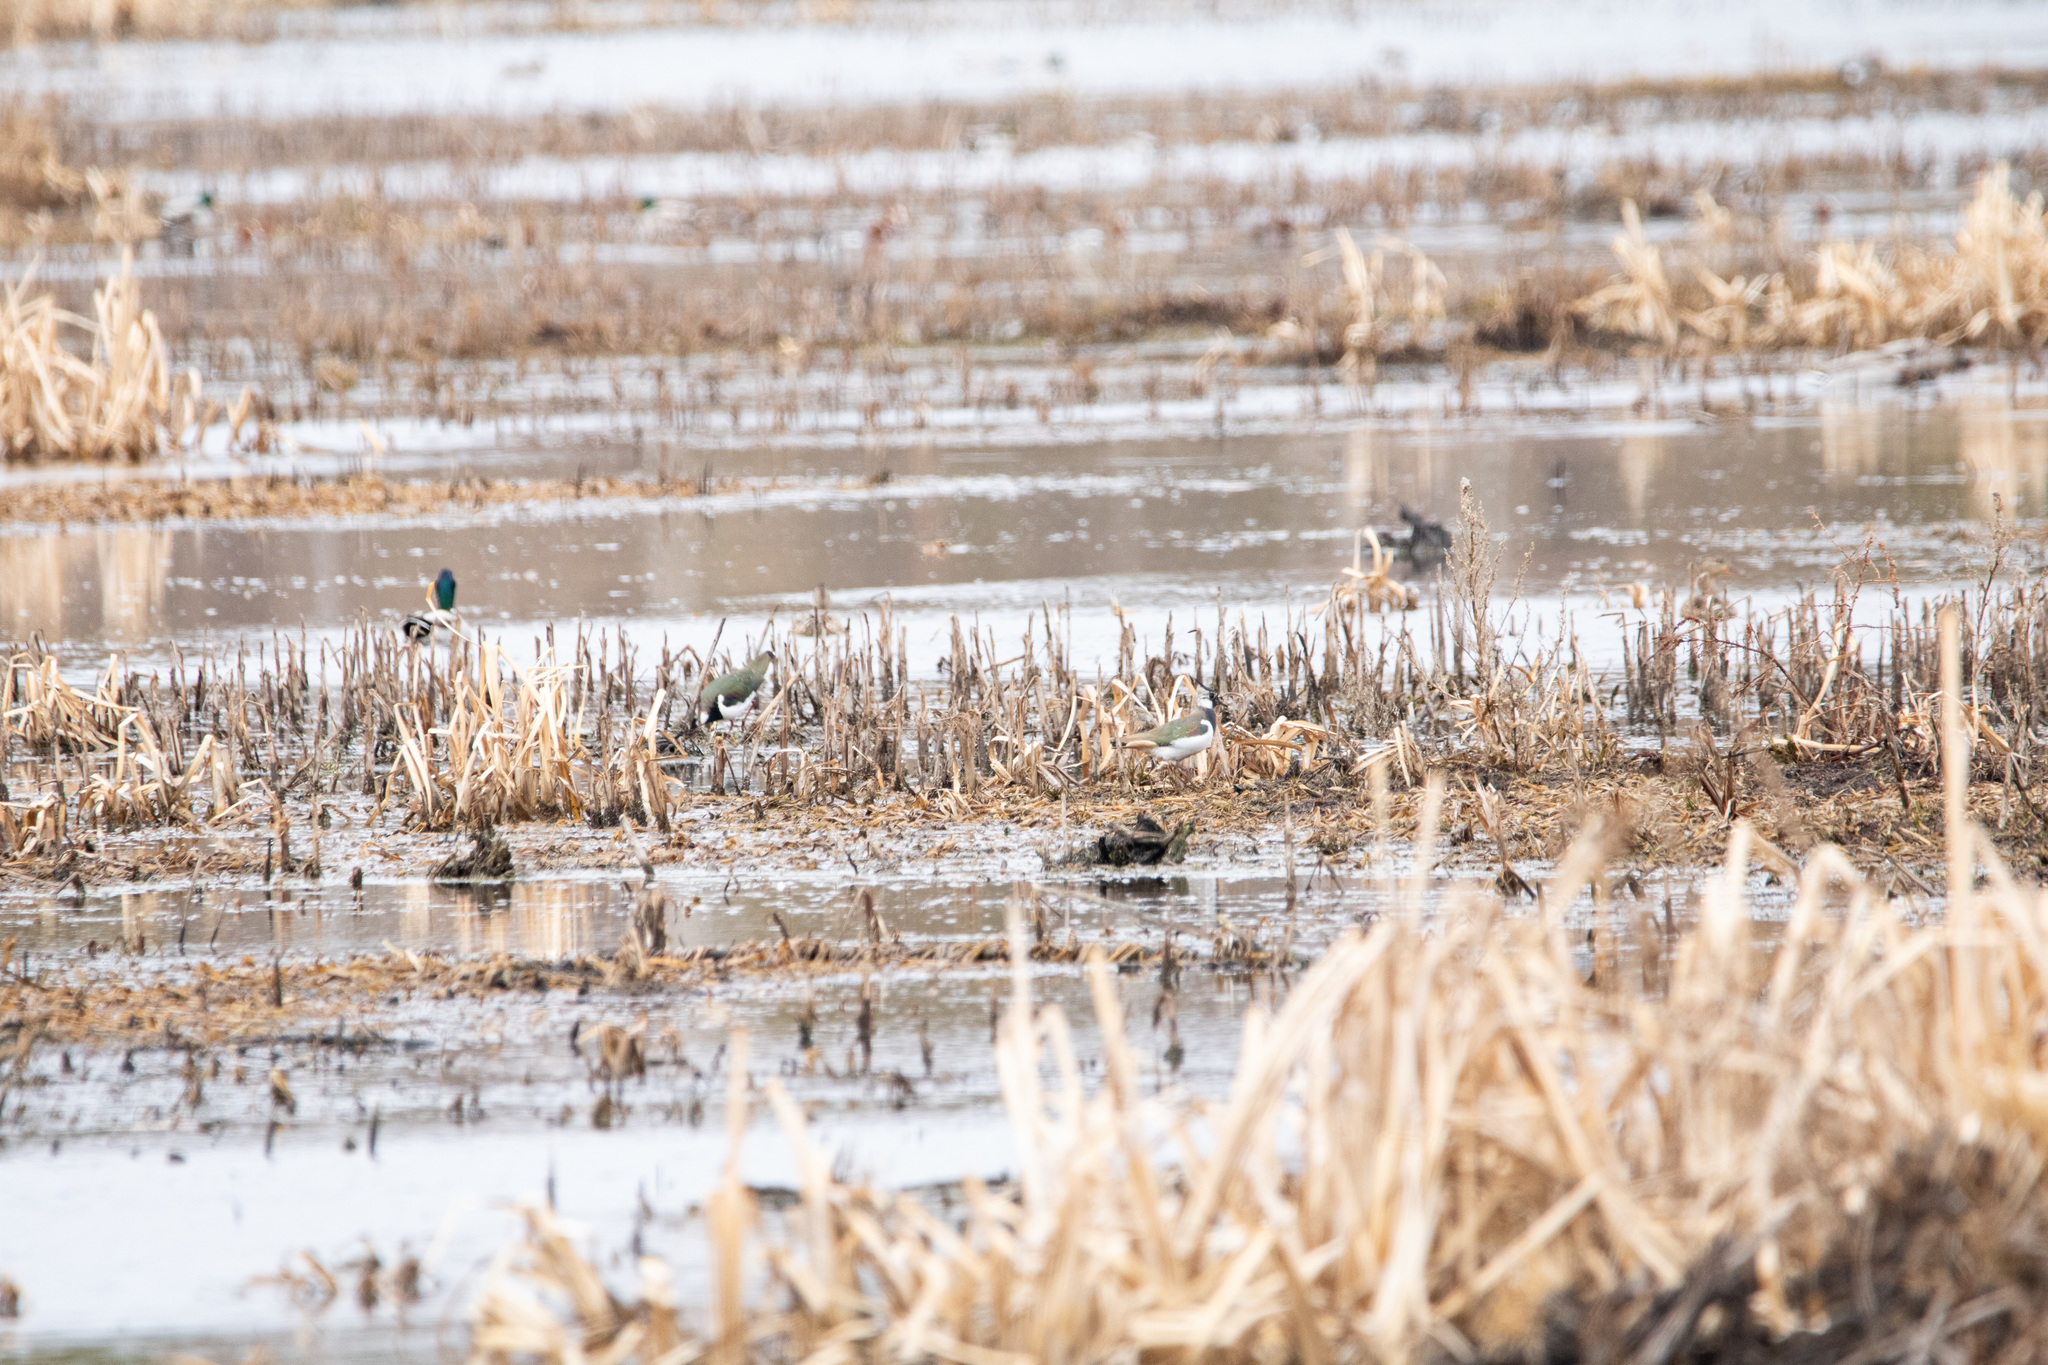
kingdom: Animalia
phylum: Chordata
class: Aves
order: Charadriiformes
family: Charadriidae
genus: Vanellus
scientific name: Vanellus vanellus
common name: Northern lapwing
